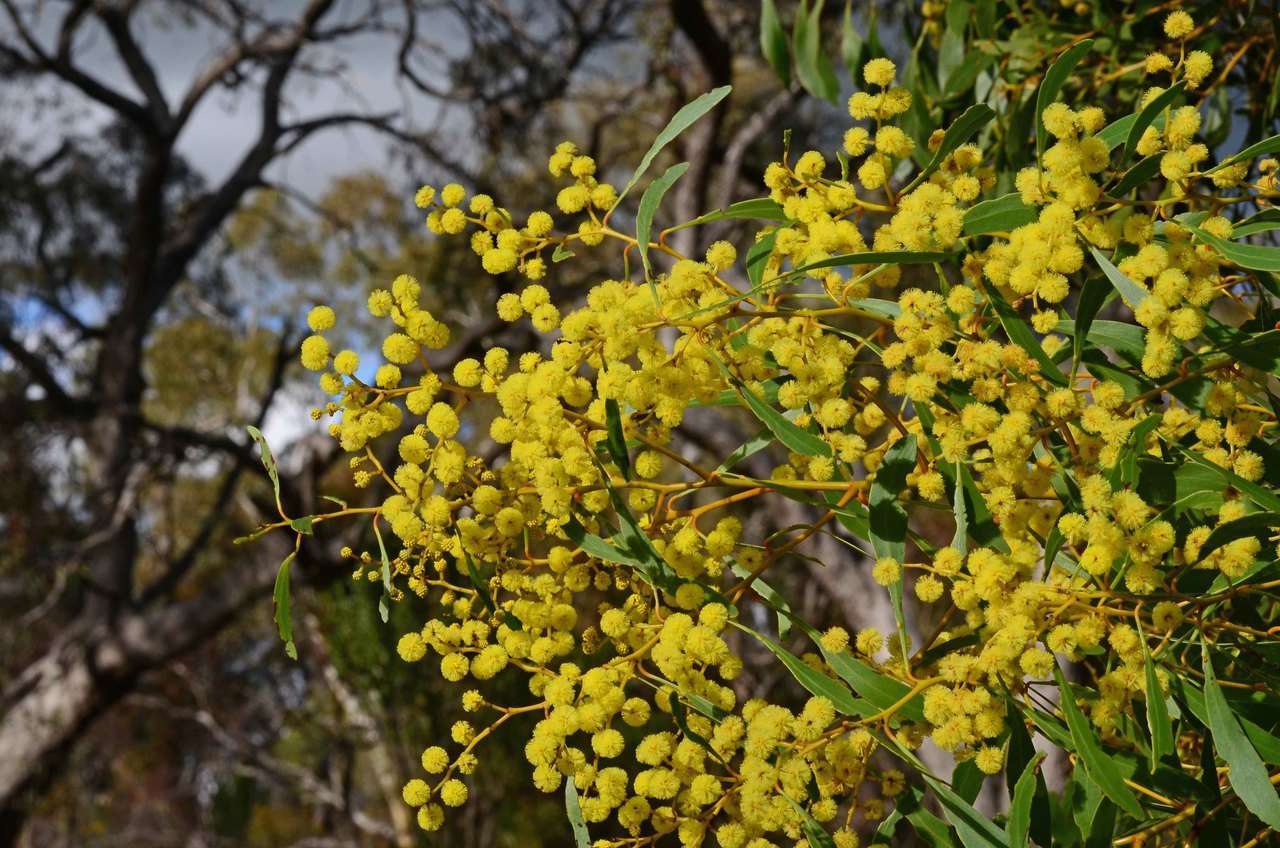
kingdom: Plantae
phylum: Tracheophyta
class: Magnoliopsida
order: Fabales
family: Fabaceae
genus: Acacia
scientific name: Acacia pycnantha
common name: Golden wattle
